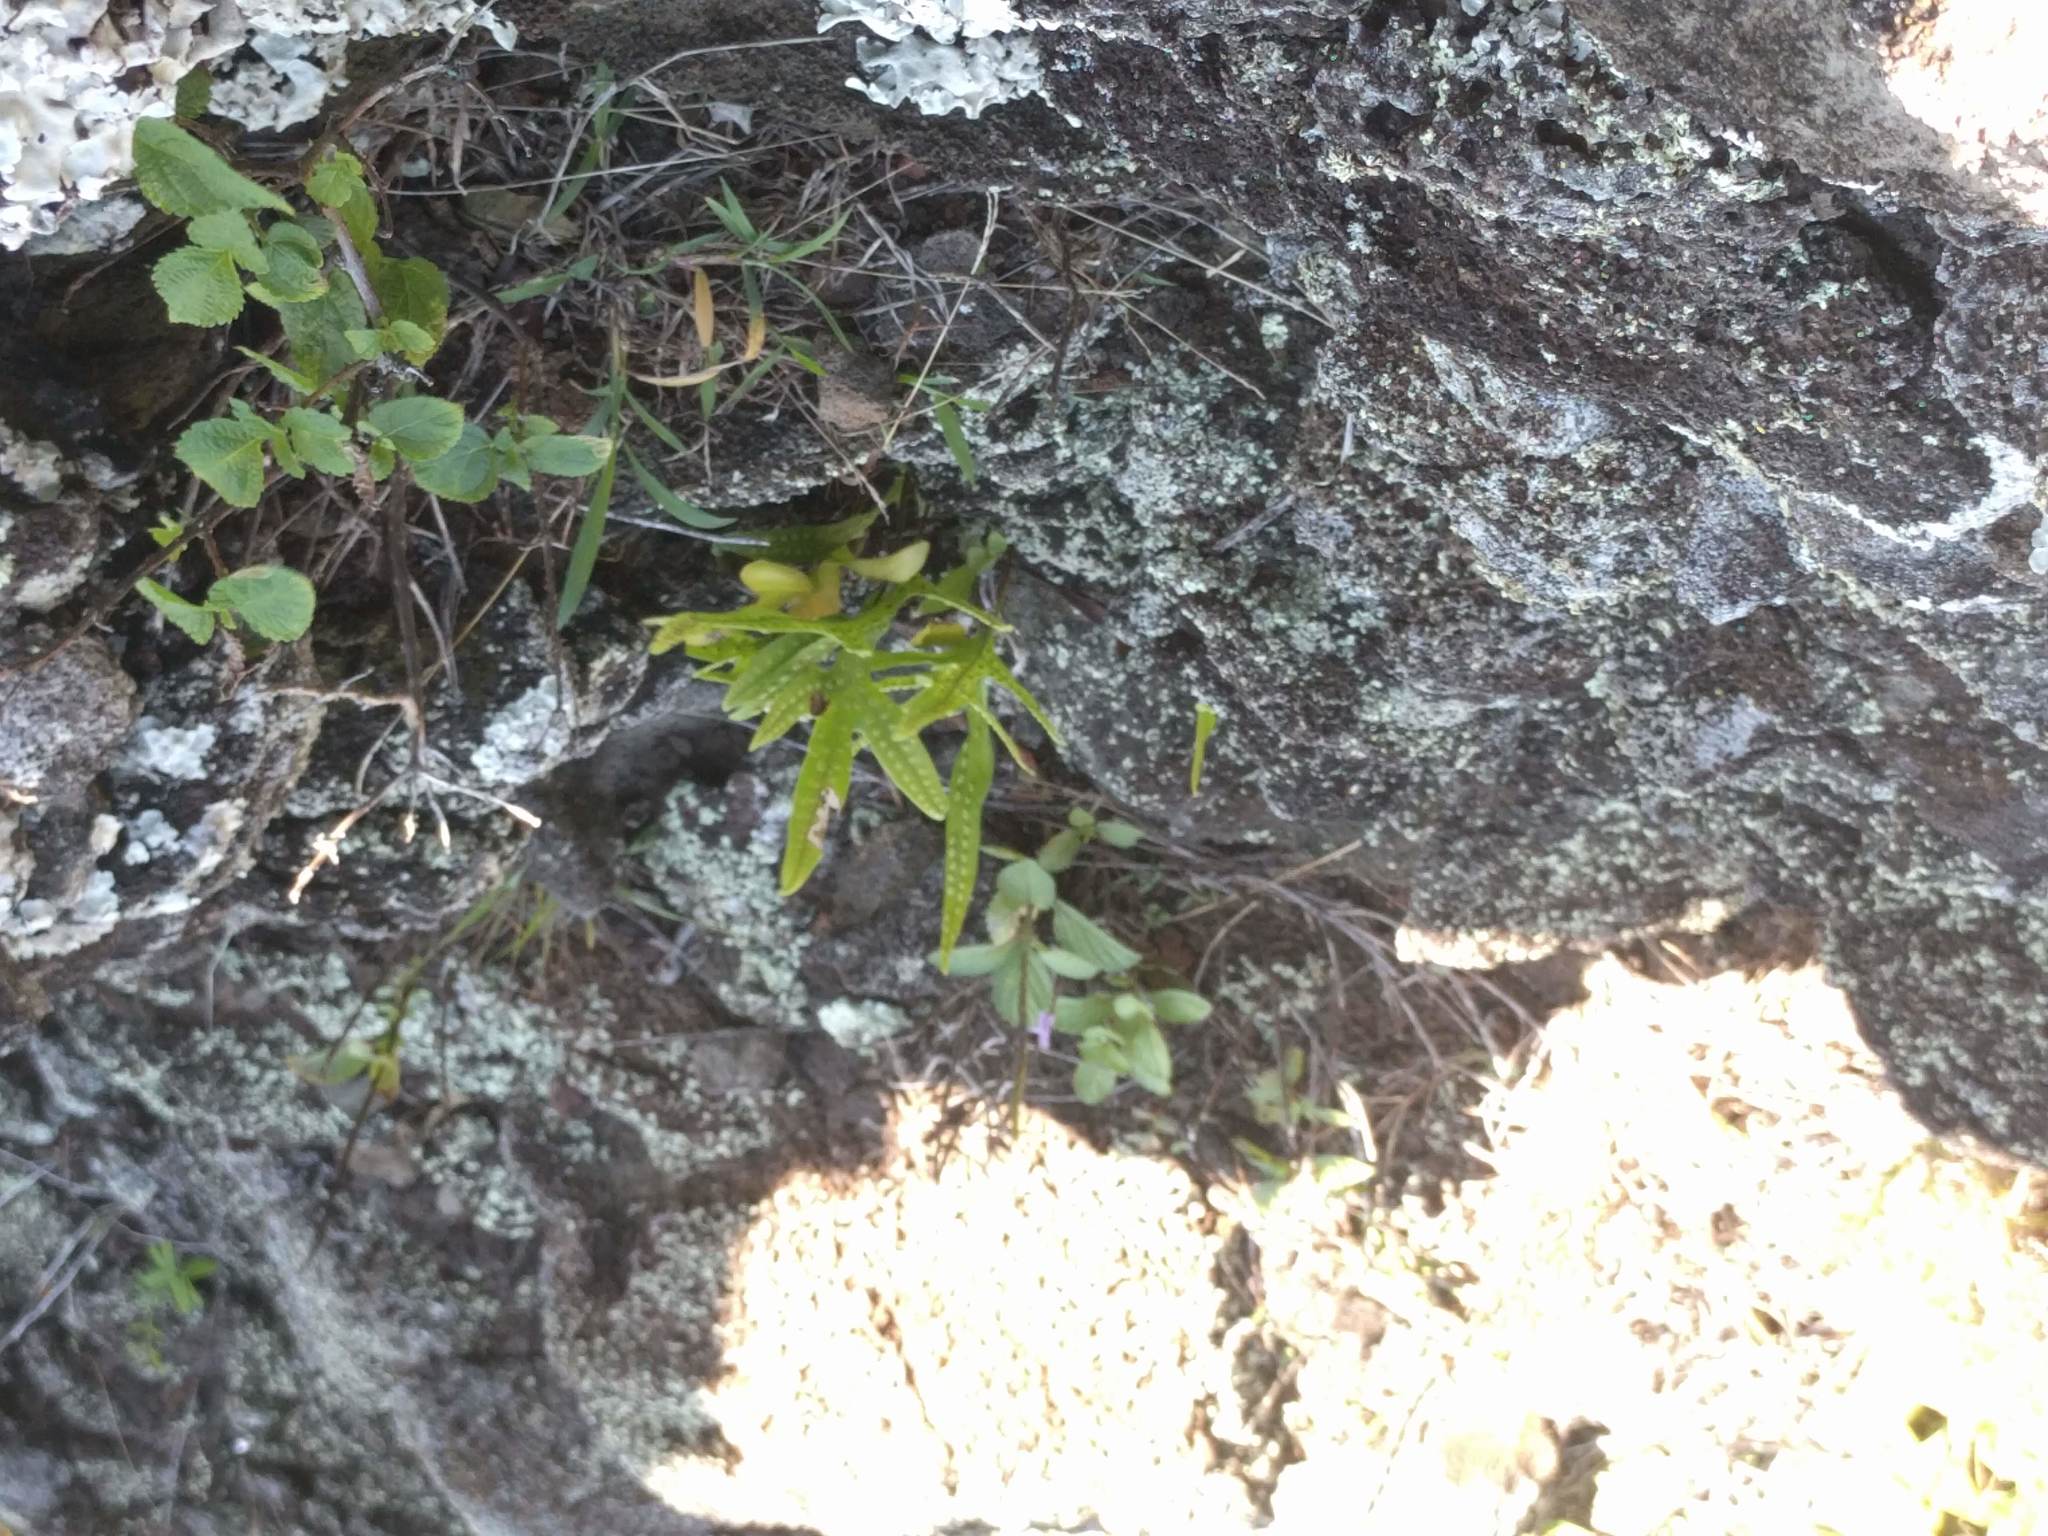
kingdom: Plantae
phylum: Tracheophyta
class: Polypodiopsida
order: Polypodiales
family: Polypodiaceae
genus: Microsorum
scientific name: Microsorum grossum
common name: Musk fern
